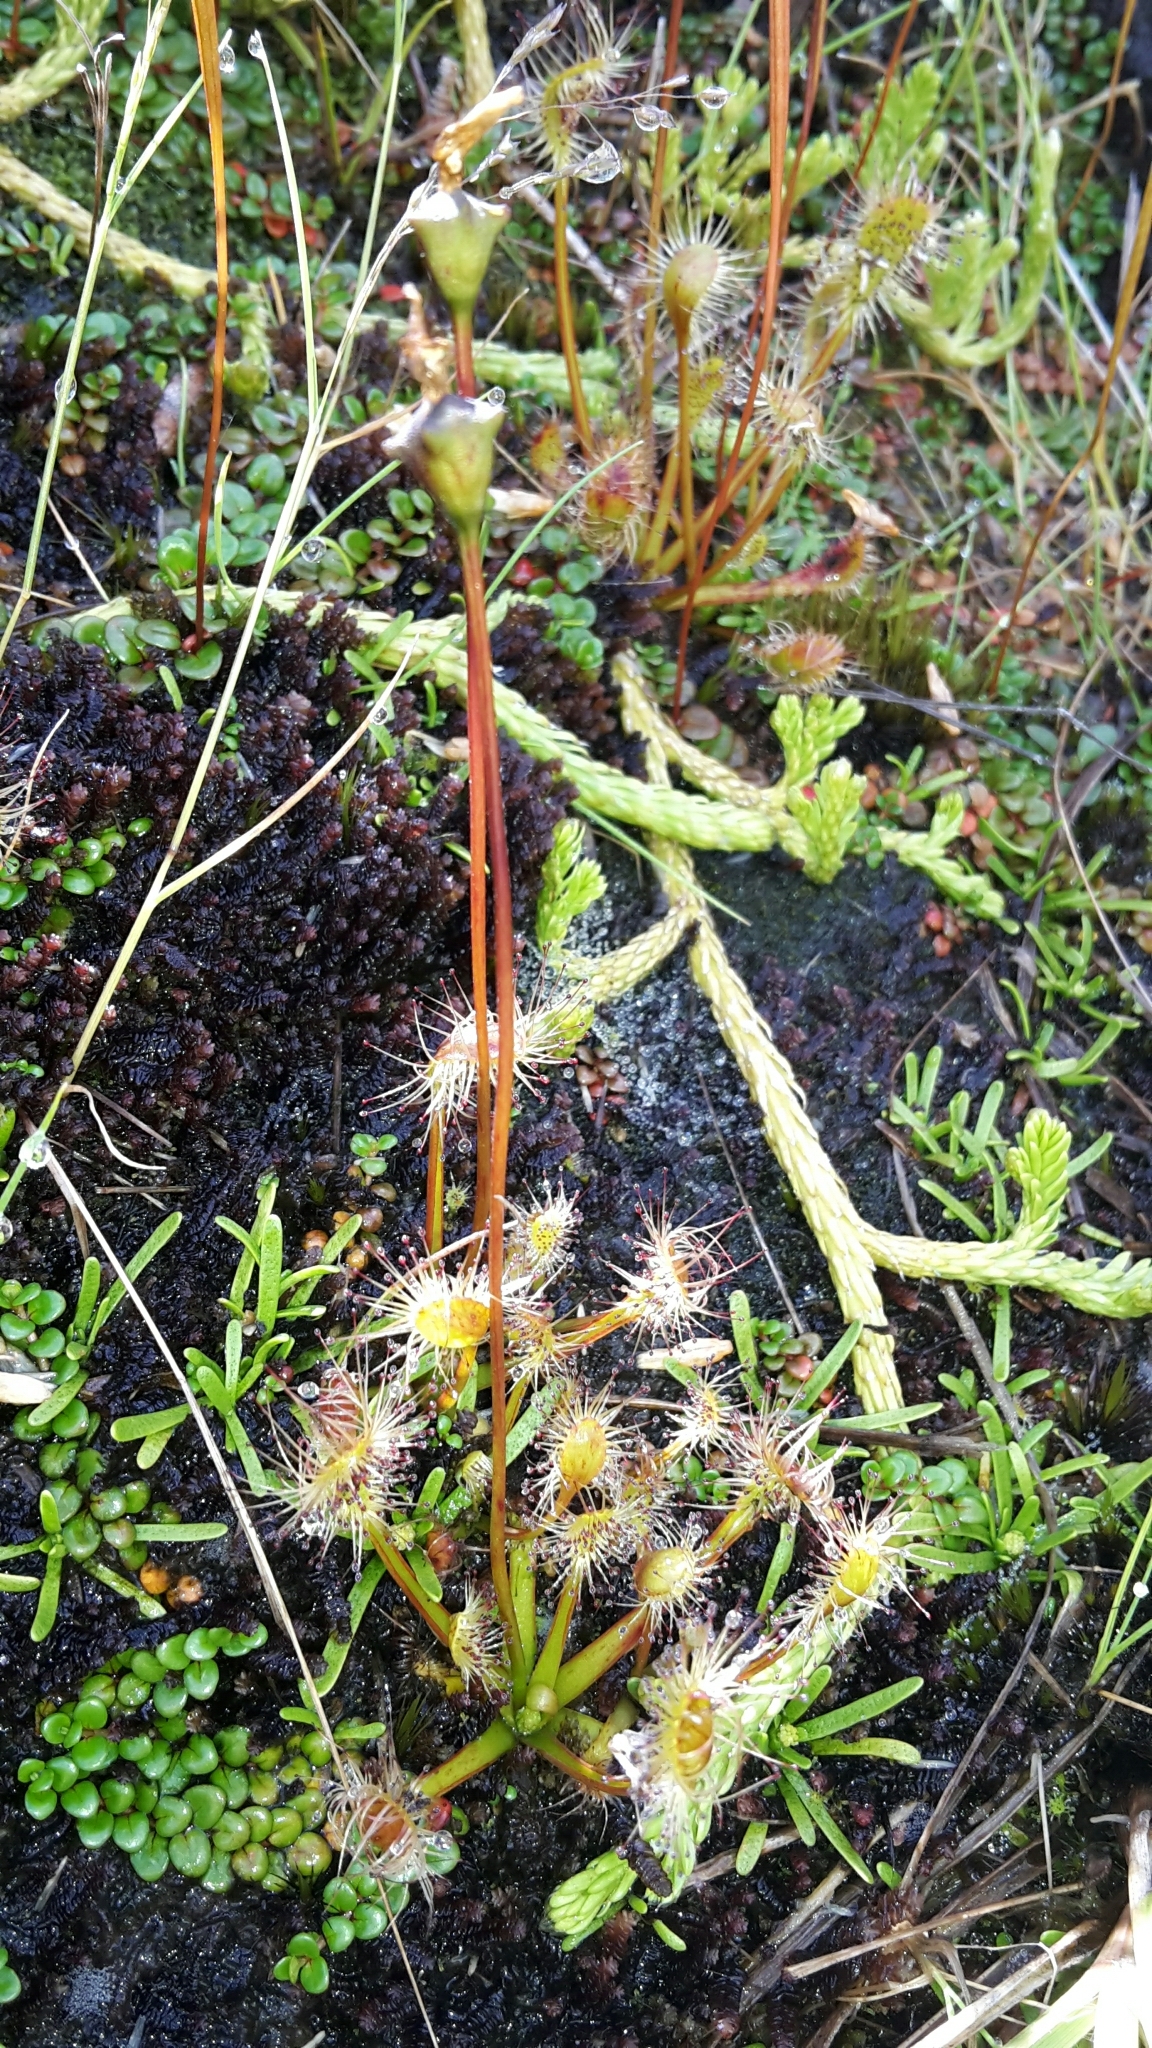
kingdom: Plantae
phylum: Tracheophyta
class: Magnoliopsida
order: Caryophyllales
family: Droseraceae
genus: Drosera
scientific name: Drosera stenopetala
